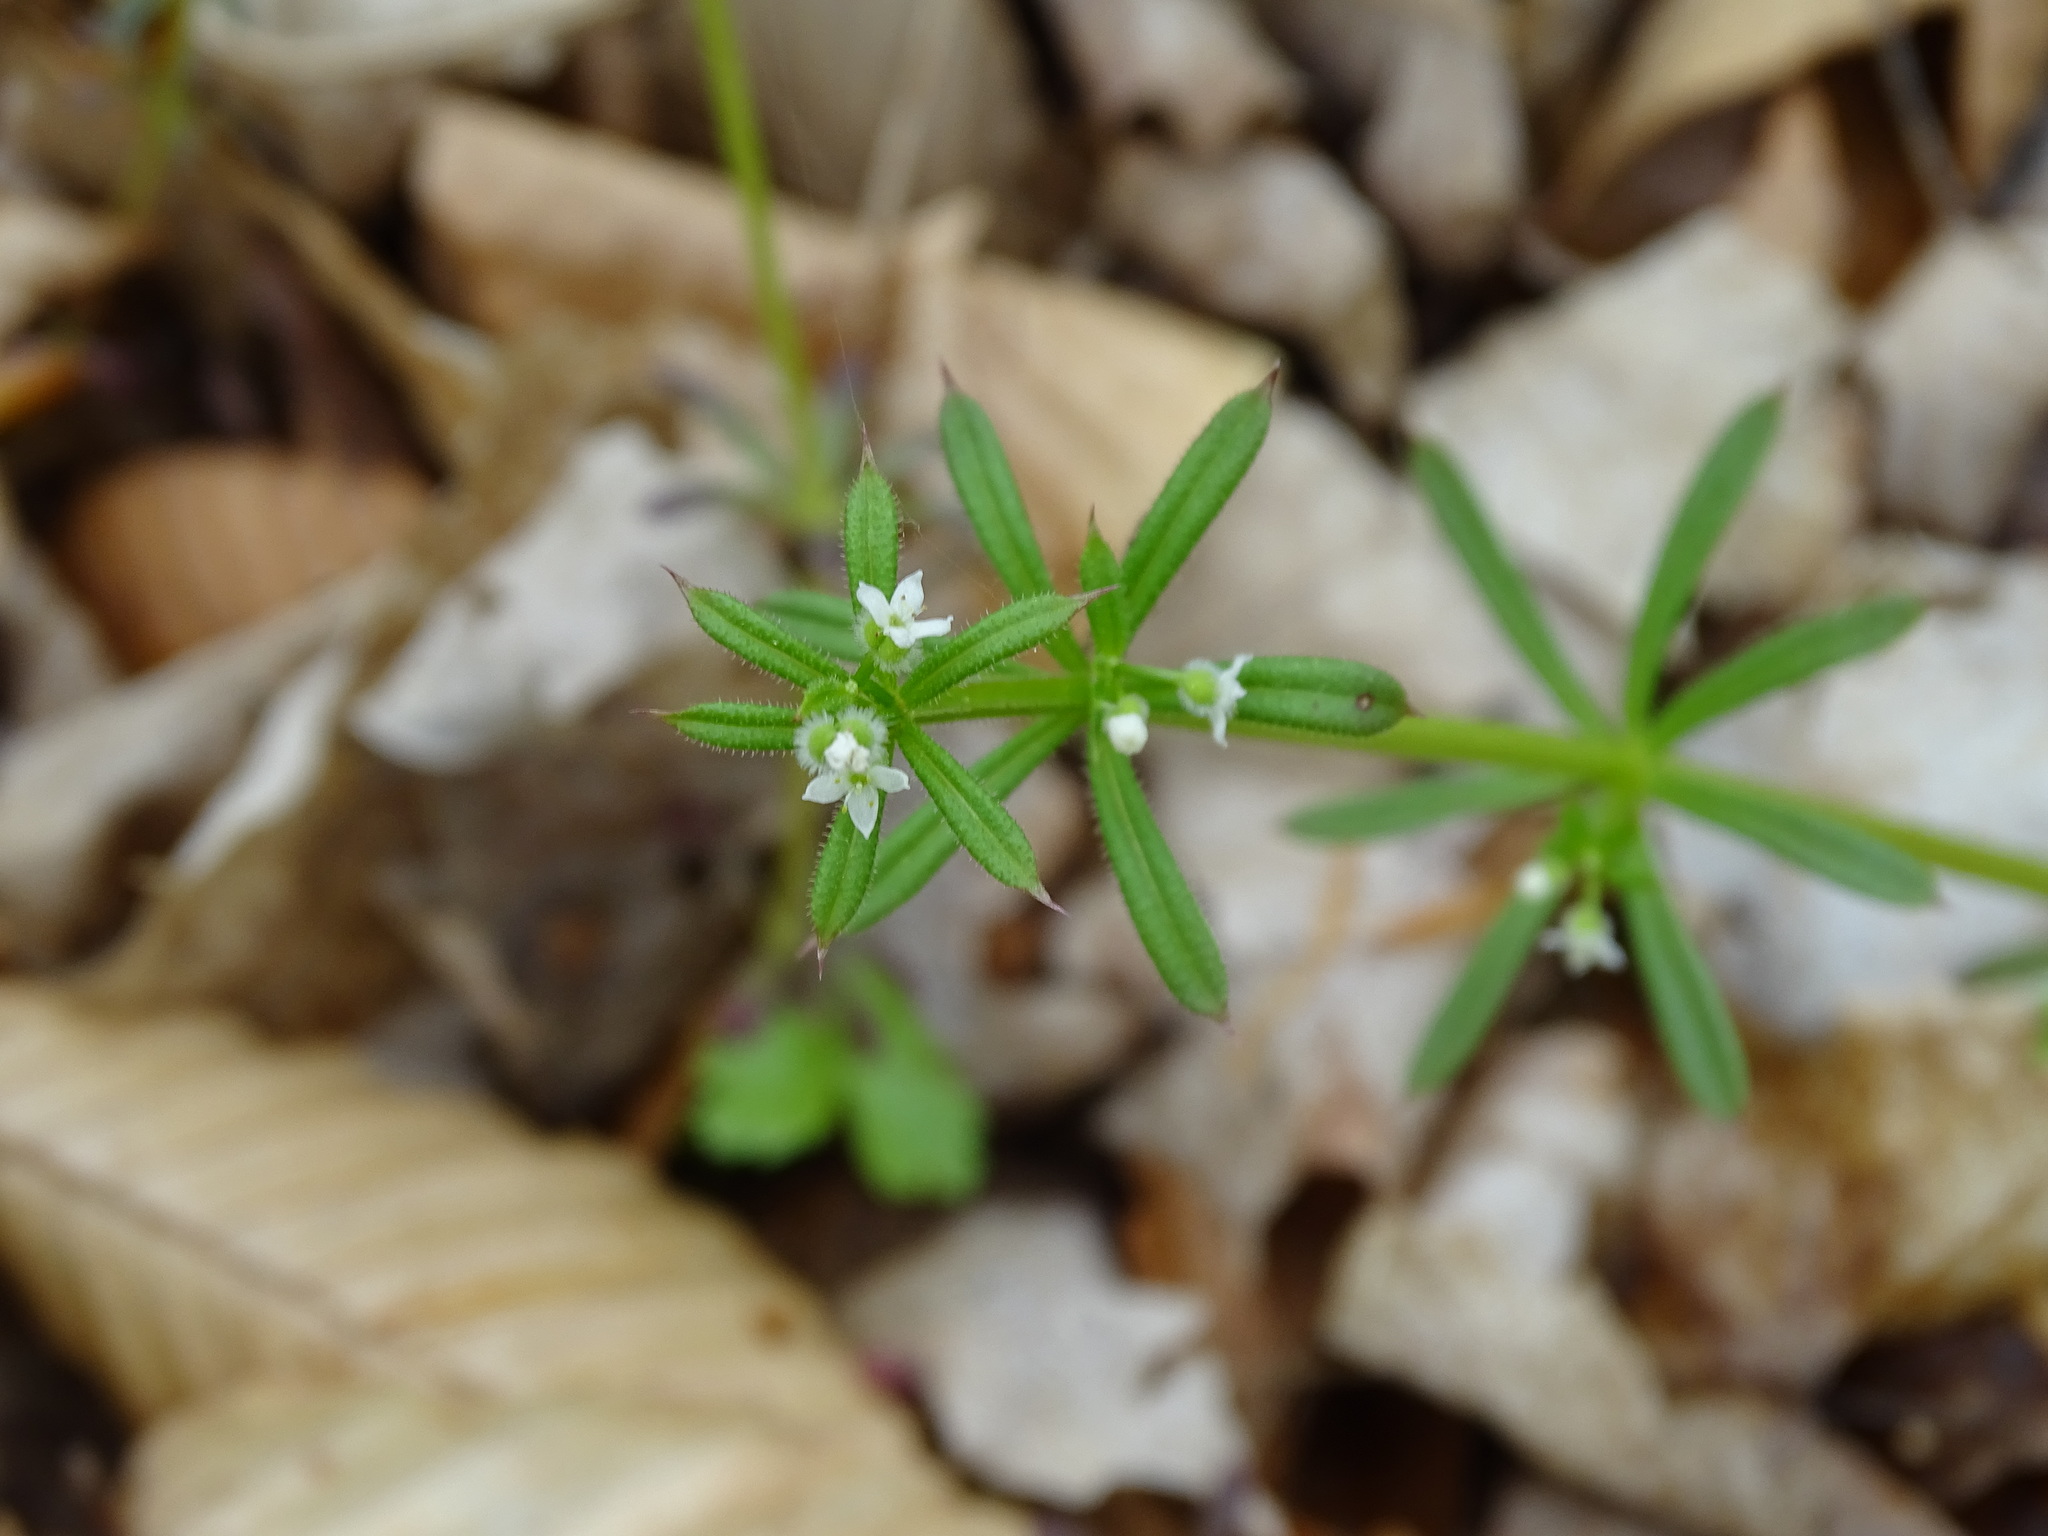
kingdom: Plantae
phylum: Tracheophyta
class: Magnoliopsida
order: Gentianales
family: Rubiaceae
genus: Galium
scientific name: Galium aparine
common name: Cleavers
